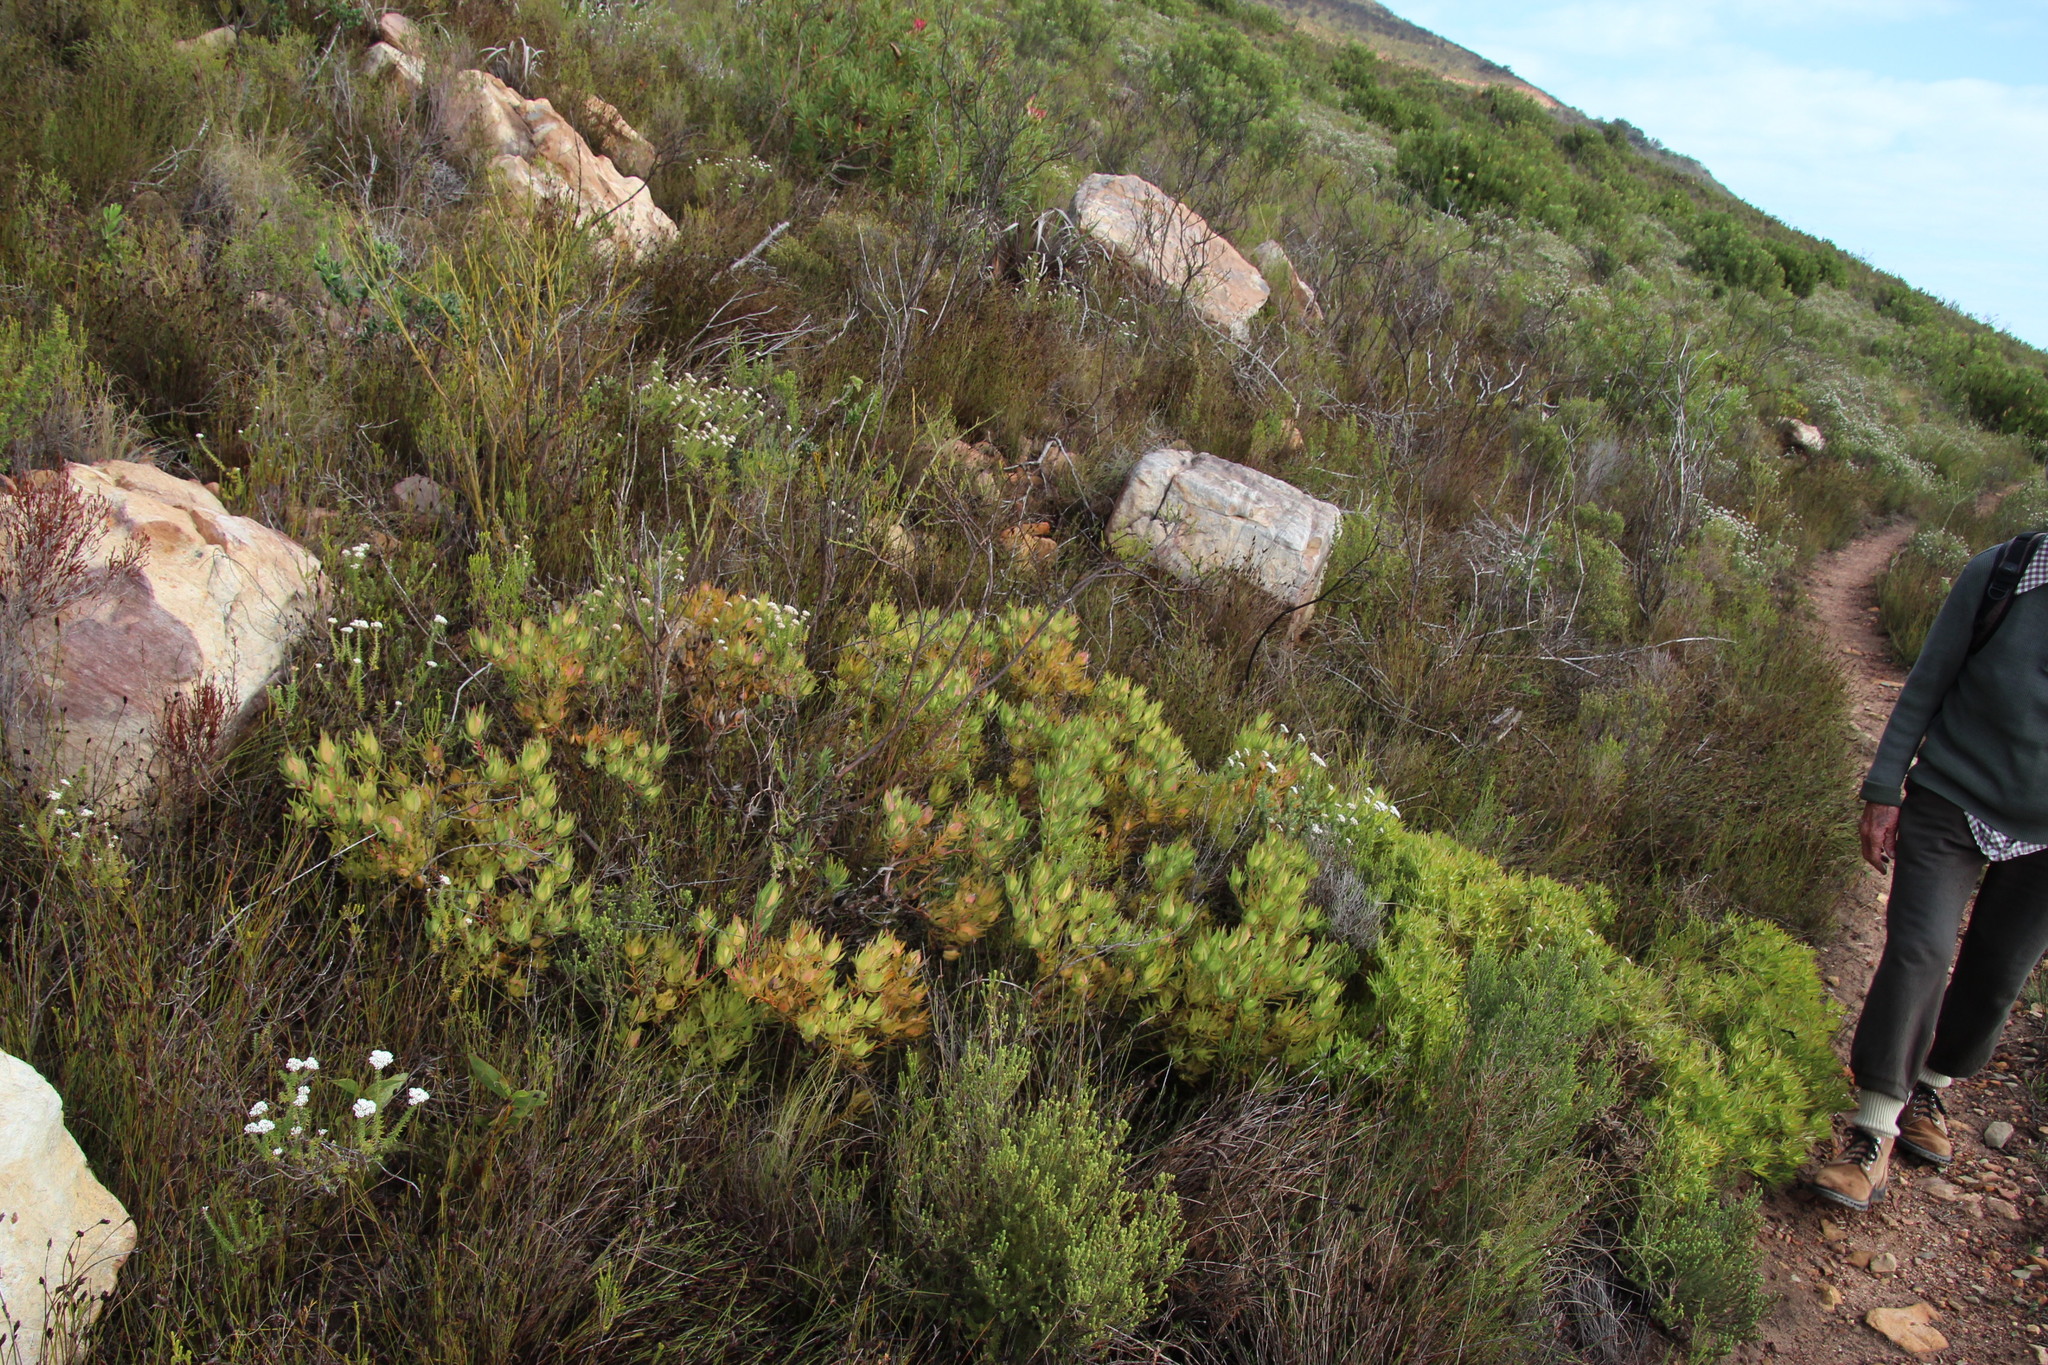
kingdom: Plantae
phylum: Tracheophyta
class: Magnoliopsida
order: Proteales
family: Proteaceae
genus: Leucadendron
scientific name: Leucadendron salignum
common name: Common sunshine conebush
